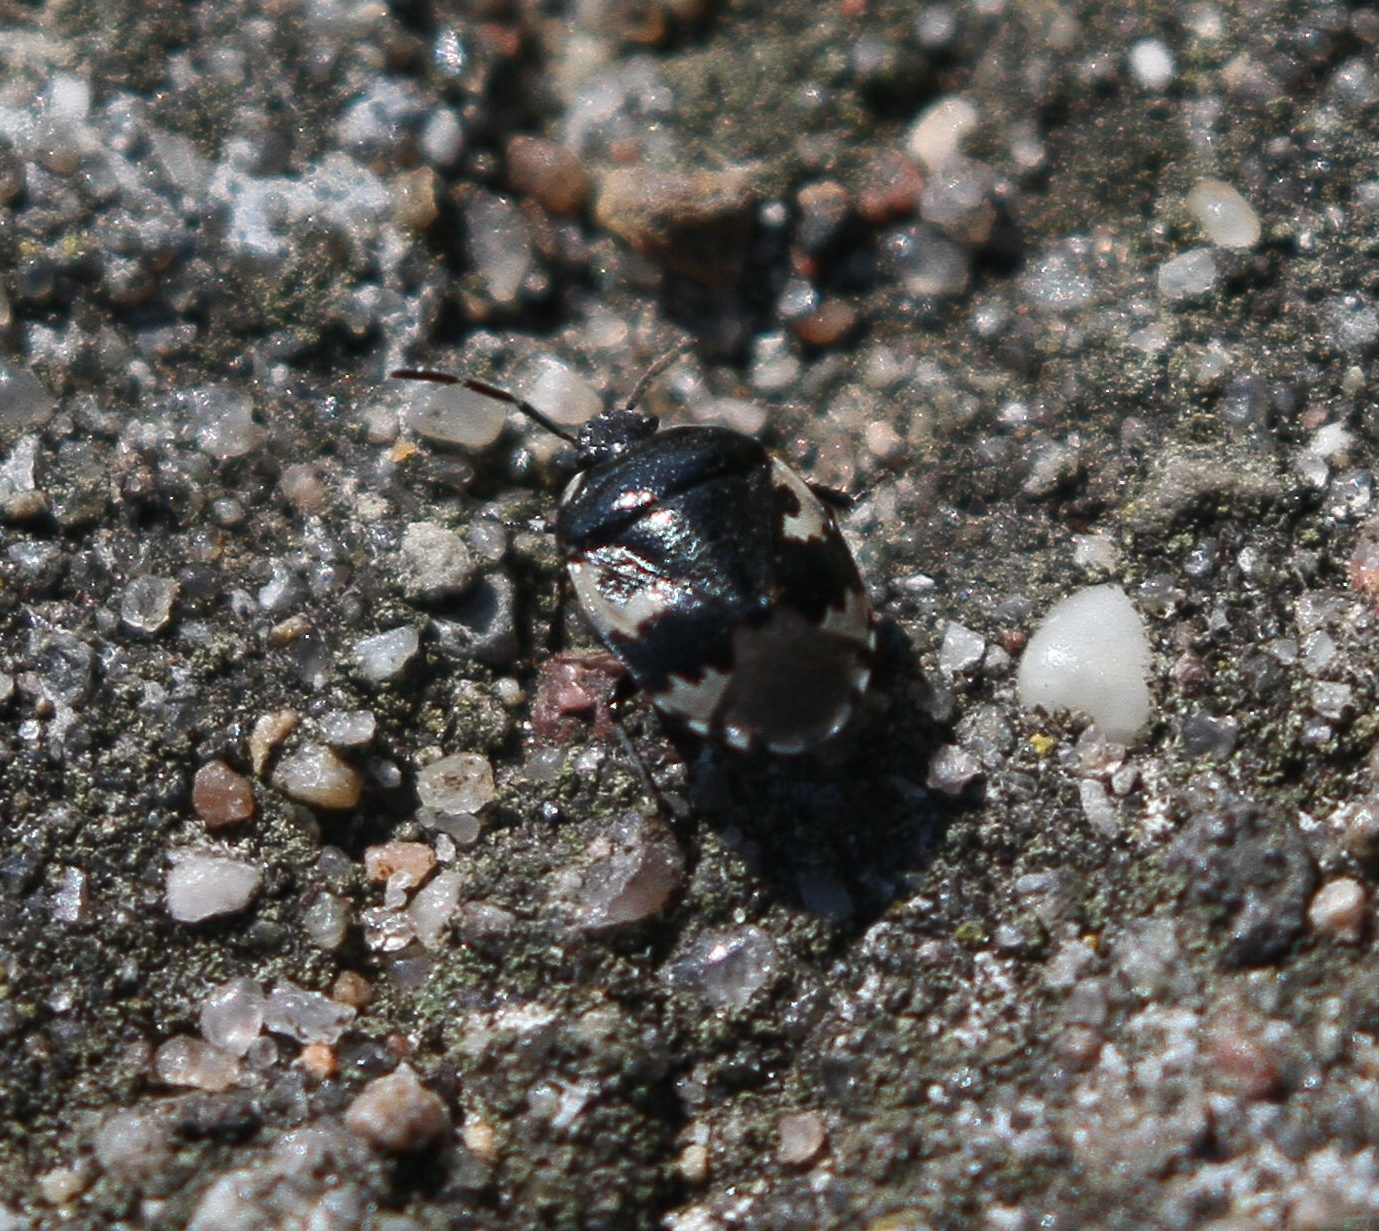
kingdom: Animalia
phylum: Arthropoda
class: Insecta
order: Hemiptera
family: Cydnidae
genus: Tritomegas
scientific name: Tritomegas bicolor
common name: Pied shieldbug
